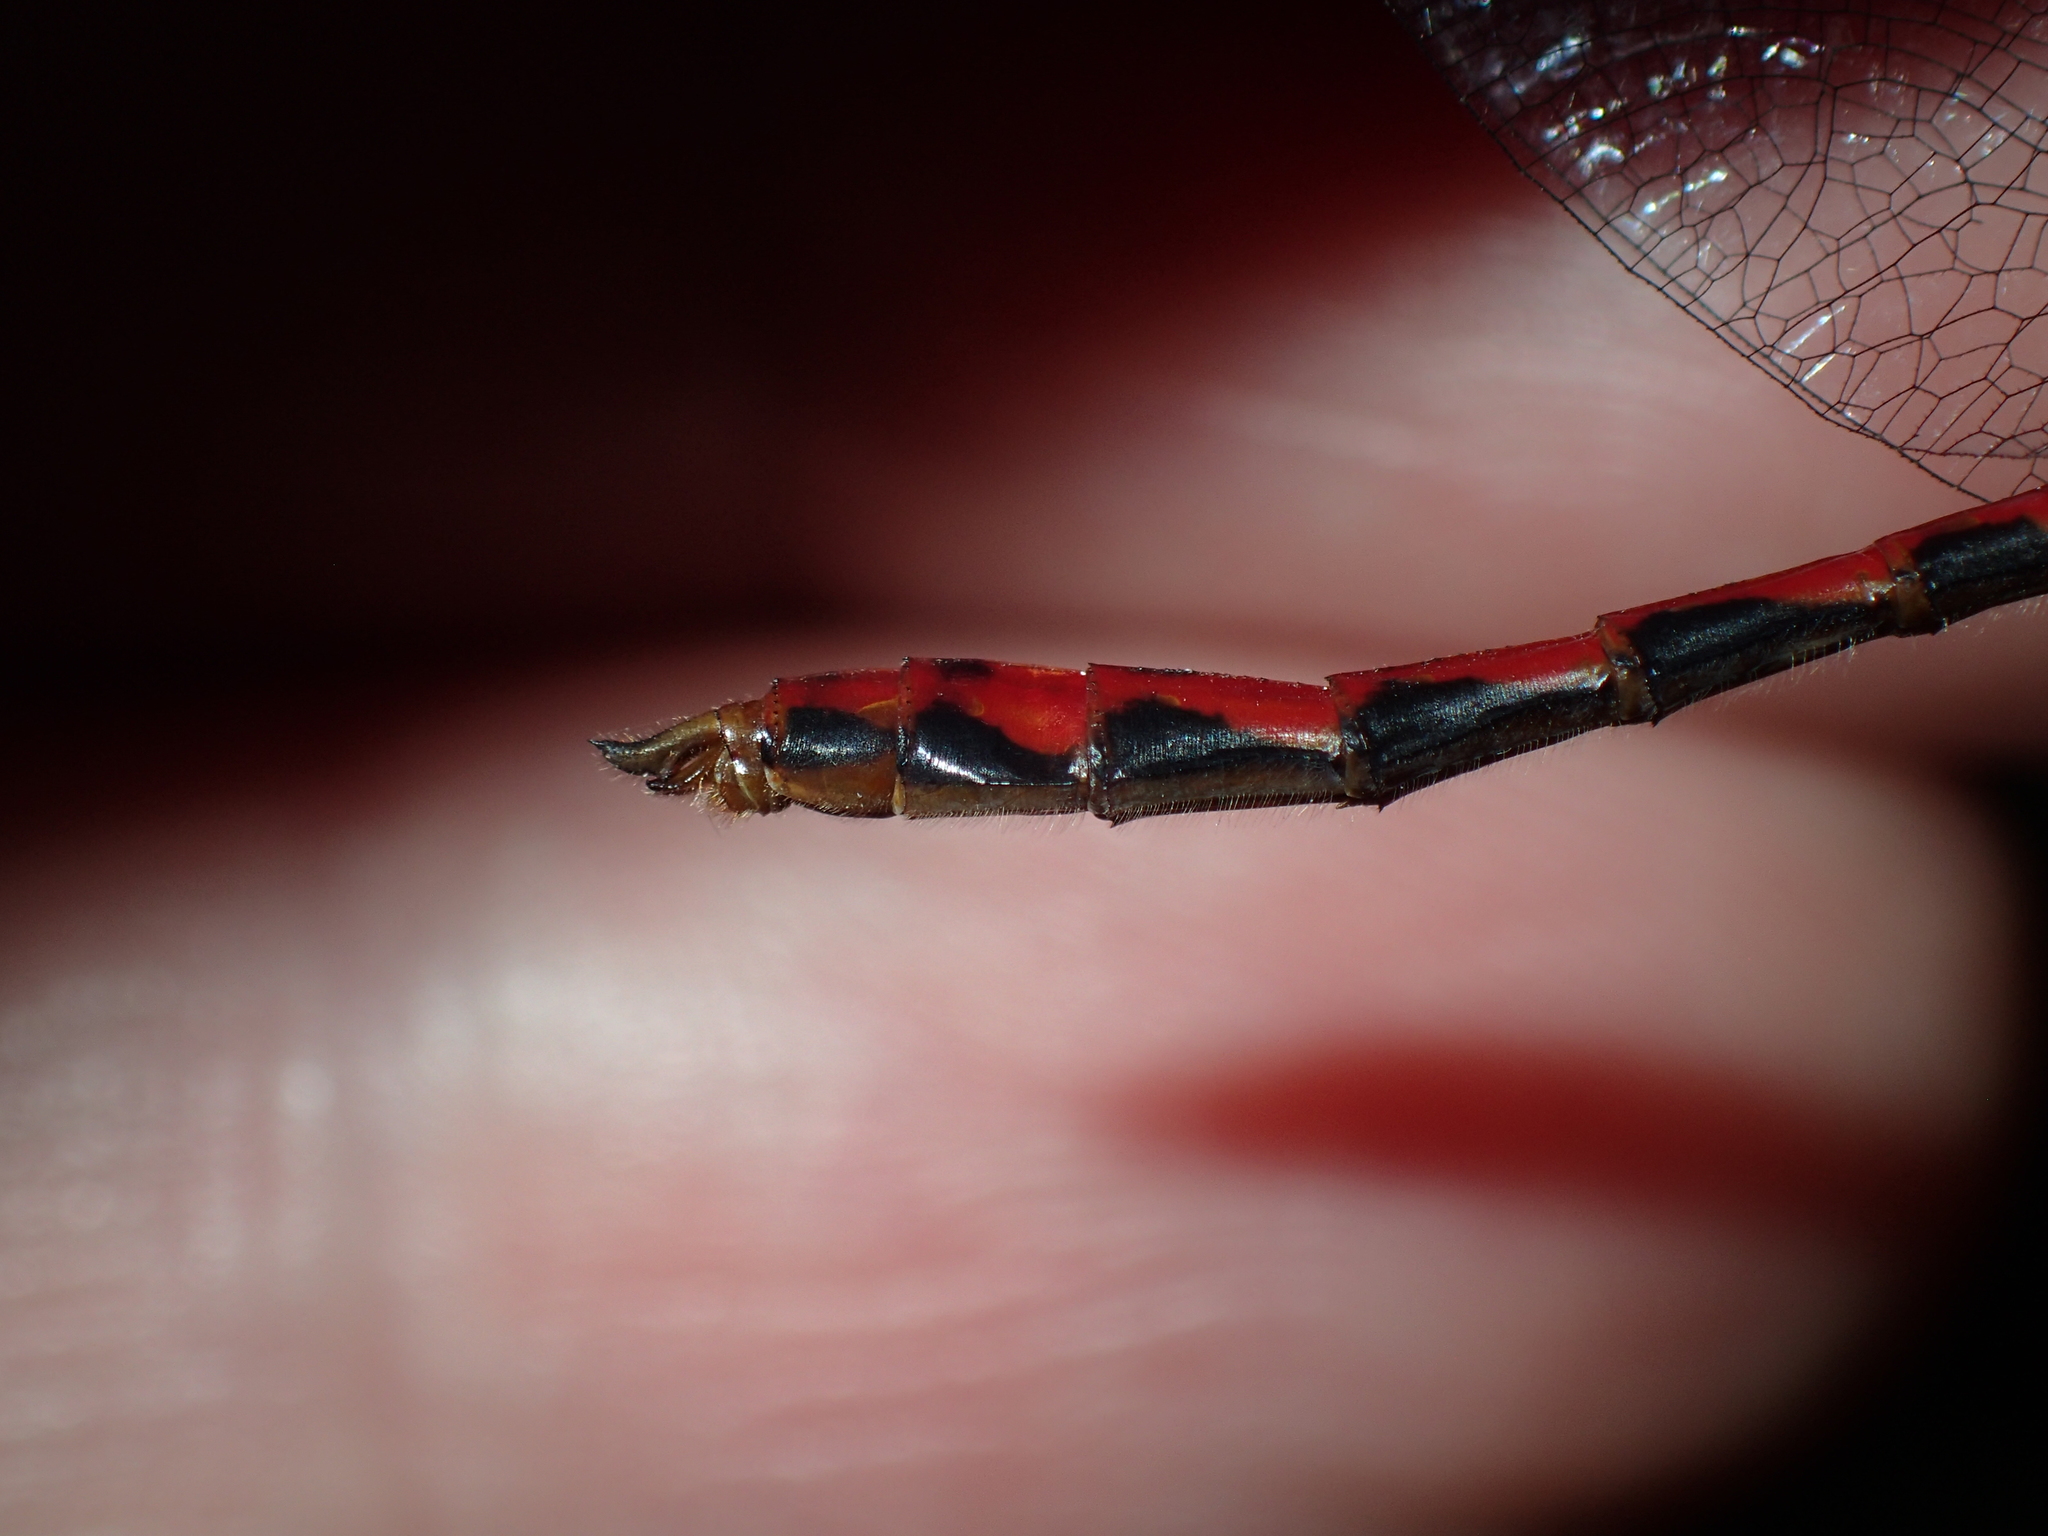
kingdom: Animalia
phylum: Arthropoda
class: Insecta
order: Odonata
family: Libellulidae
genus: Sympetrum
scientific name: Sympetrum internum
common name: Cherry-faced meadowhawk
